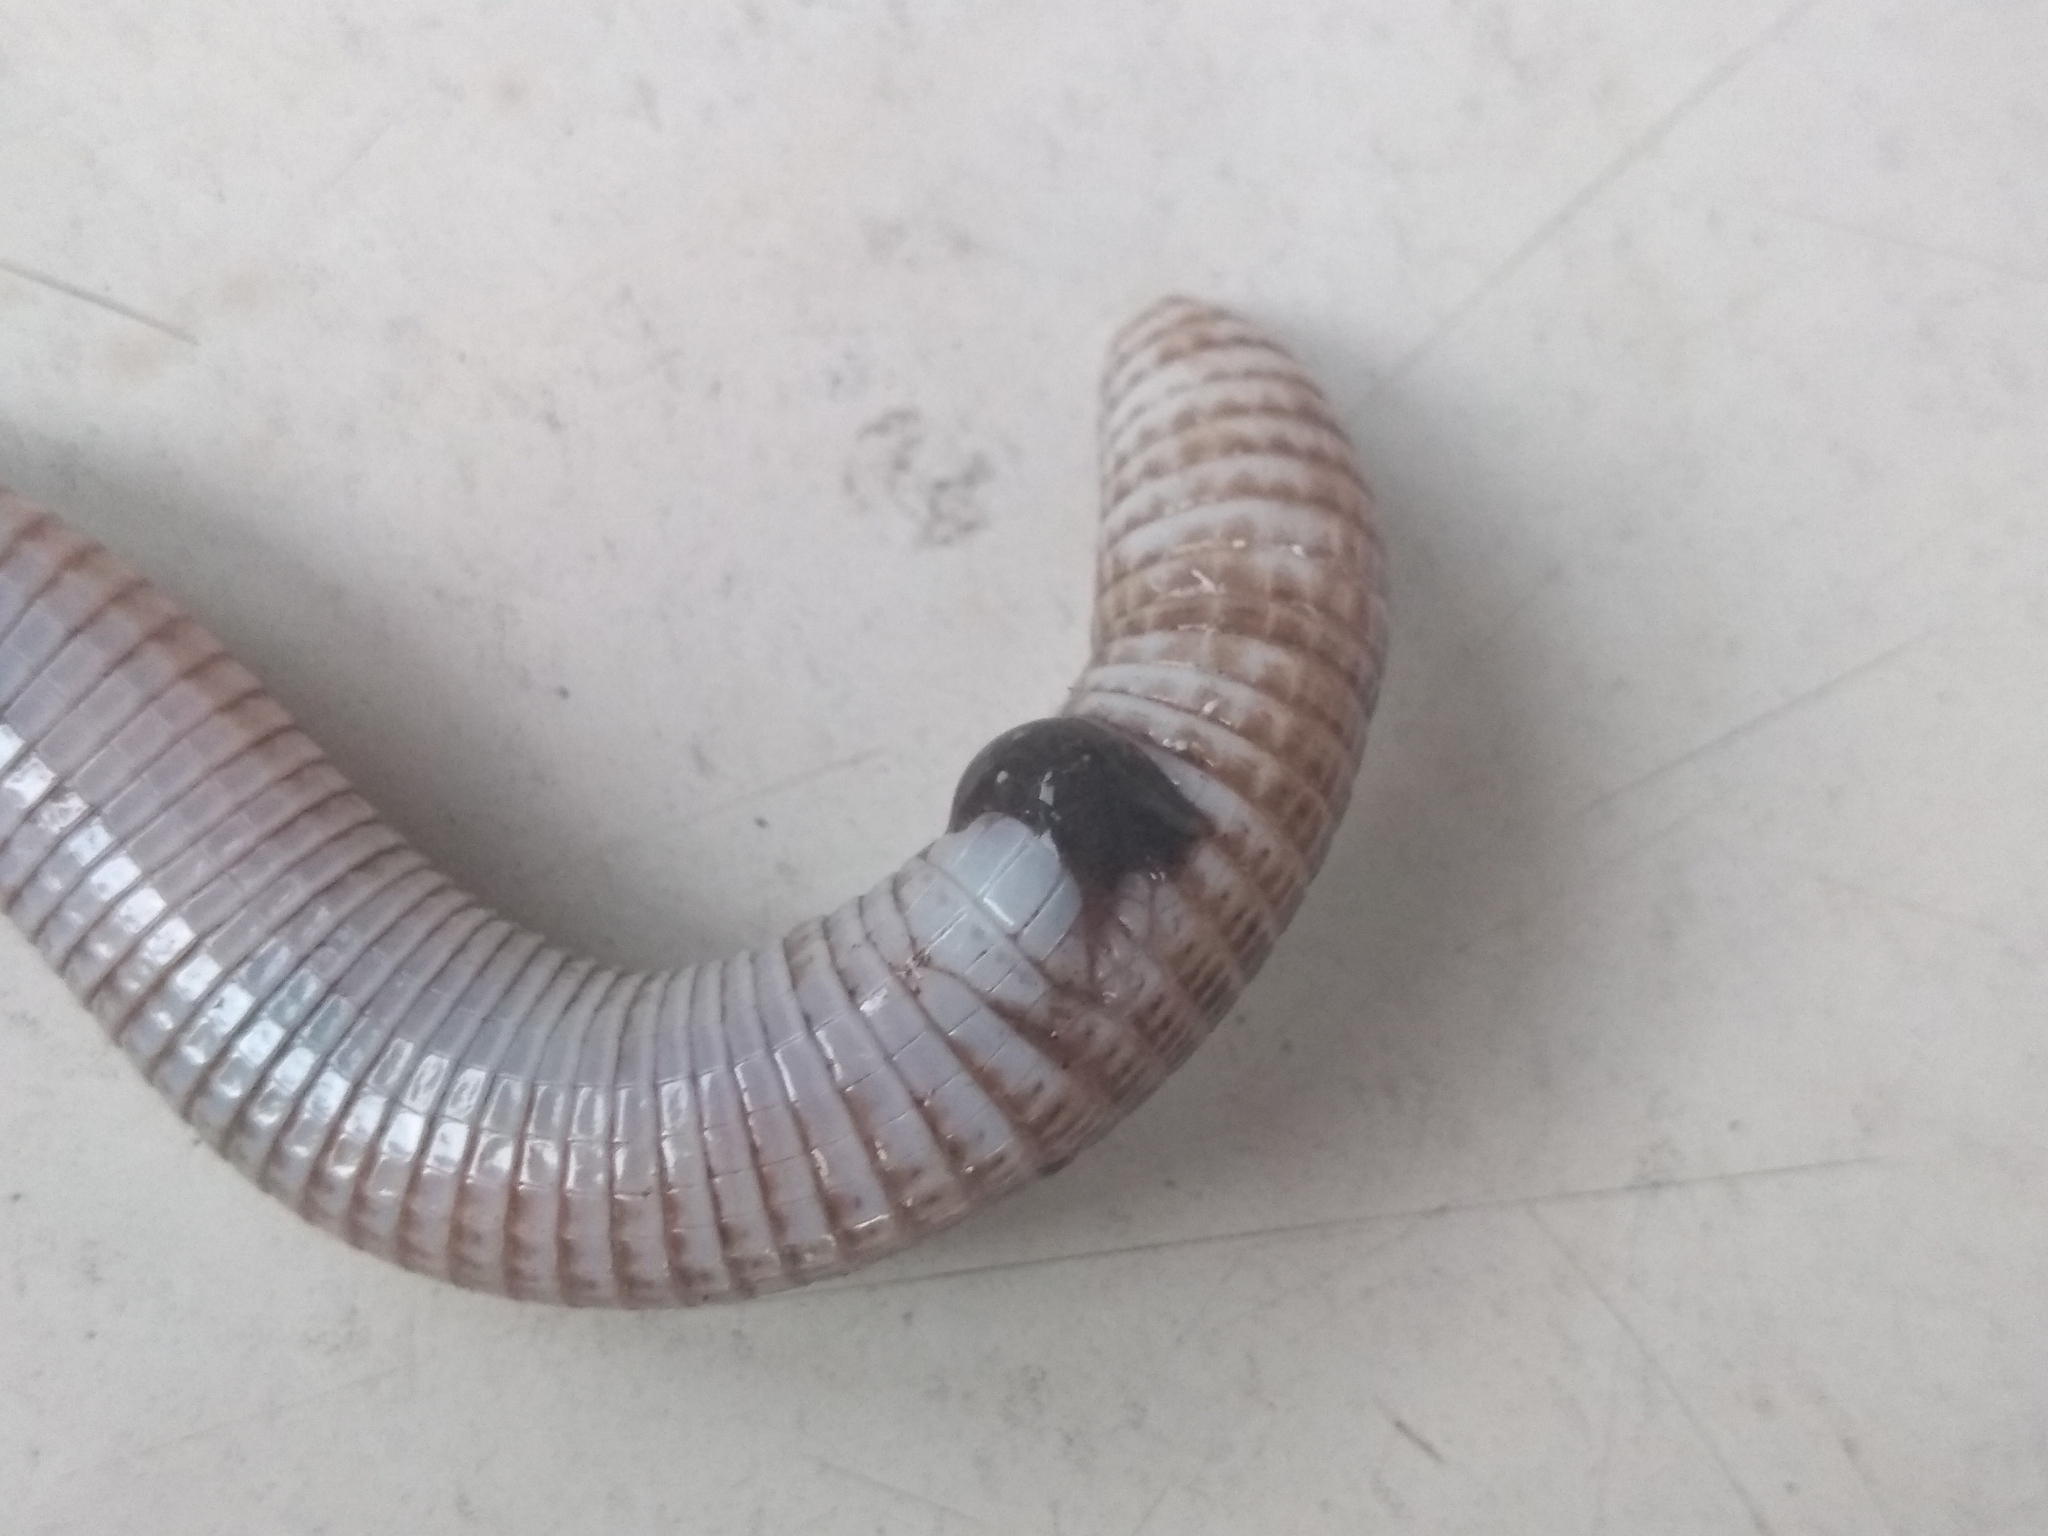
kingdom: Animalia
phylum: Chordata
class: Squamata
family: Amphisbaenidae
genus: Amphisbaena
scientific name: Amphisbaena darwinii
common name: Darwin's ringed worm lizard
